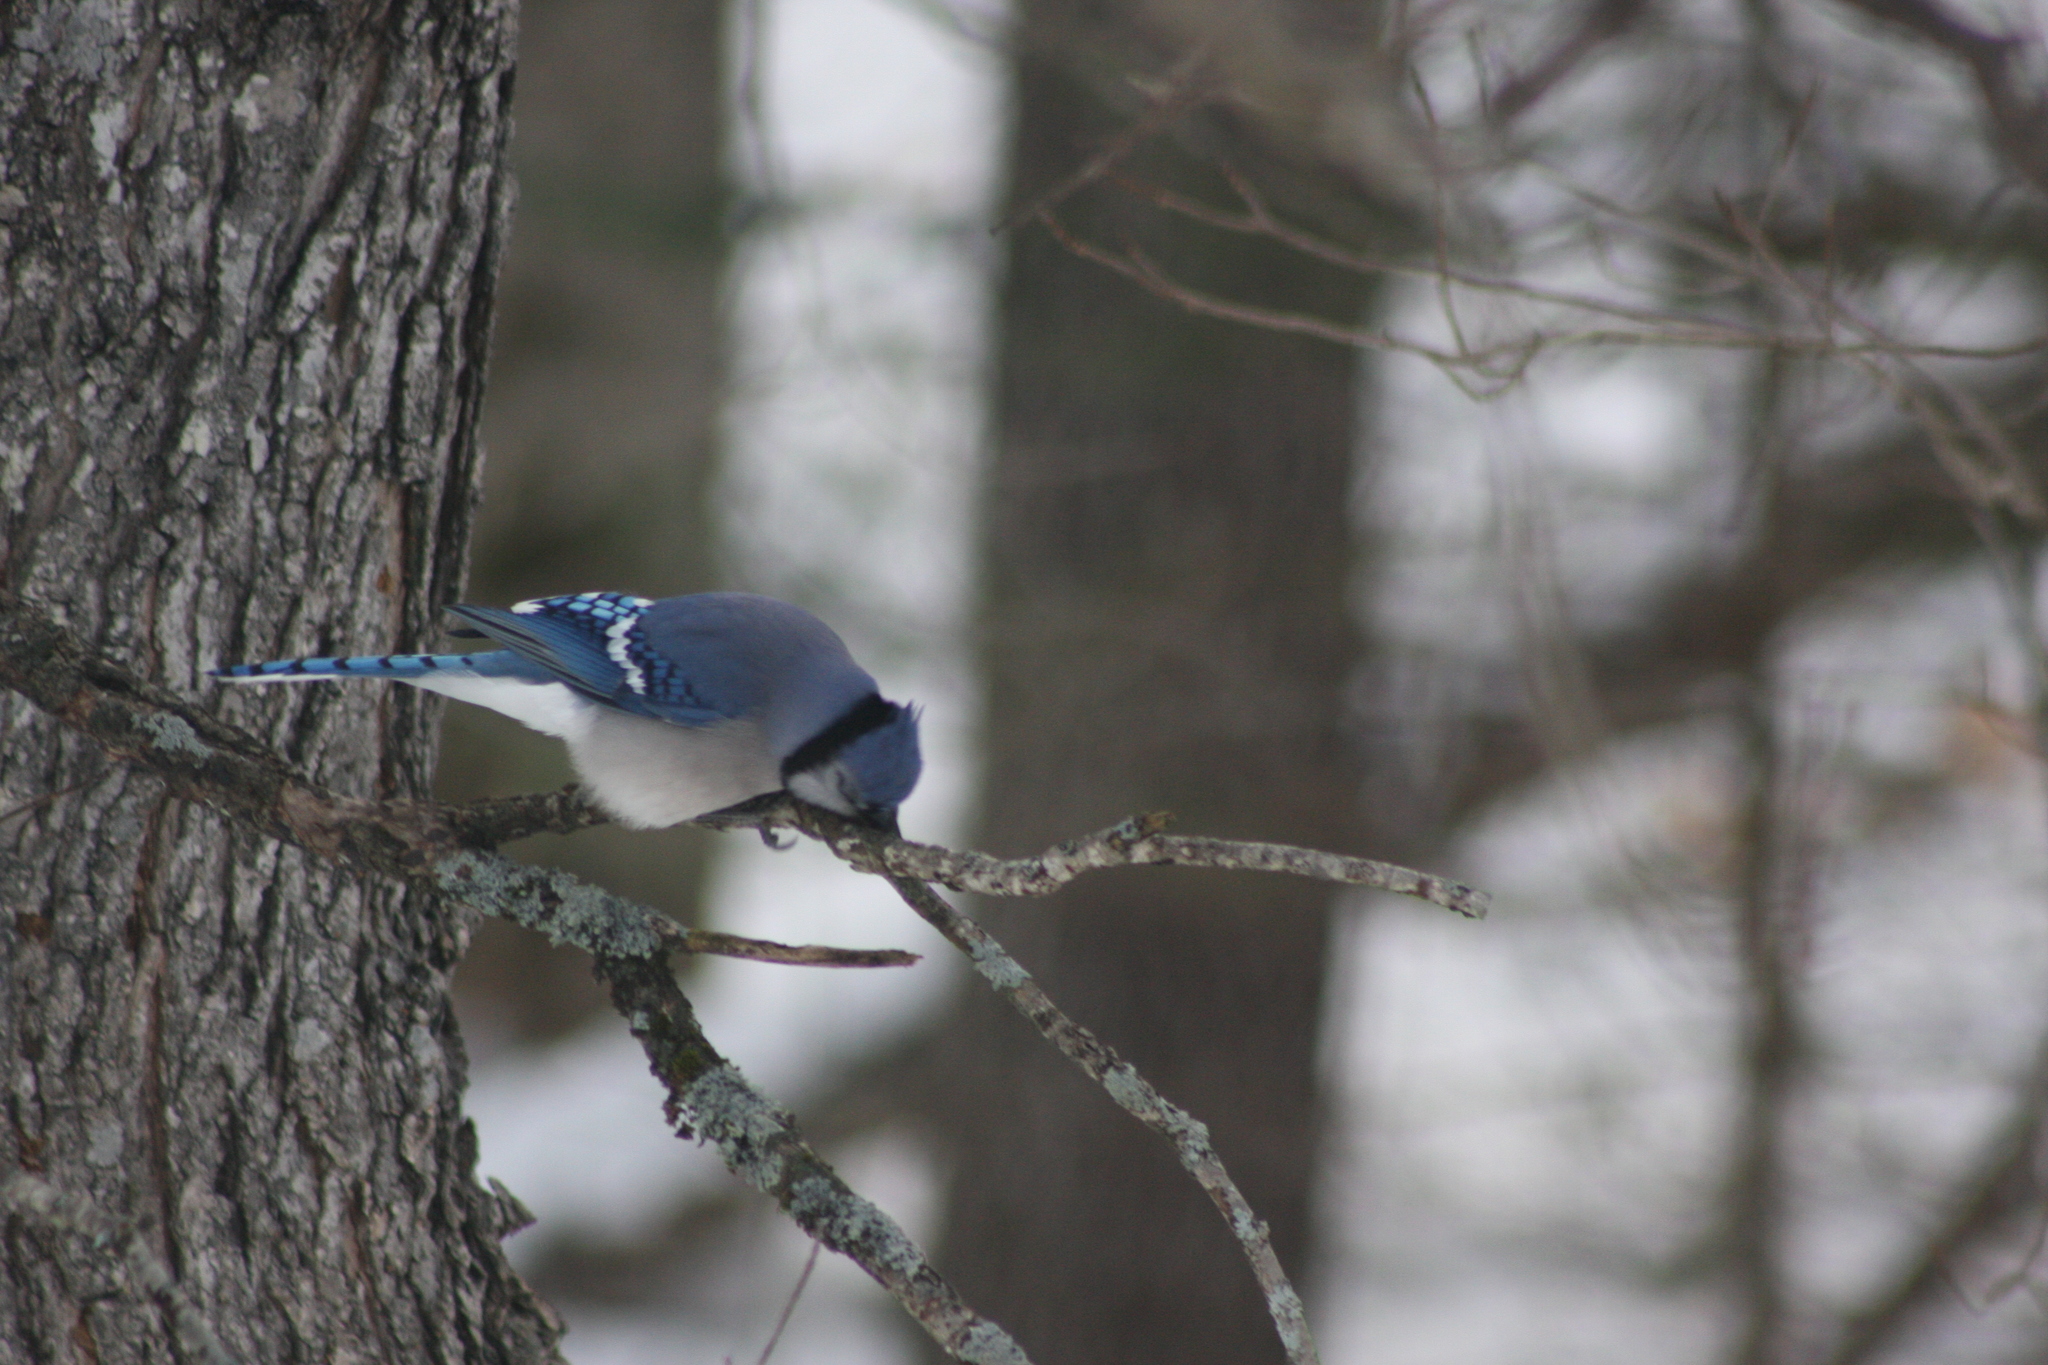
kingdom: Animalia
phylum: Chordata
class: Aves
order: Passeriformes
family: Corvidae
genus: Cyanocitta
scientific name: Cyanocitta cristata
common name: Blue jay
